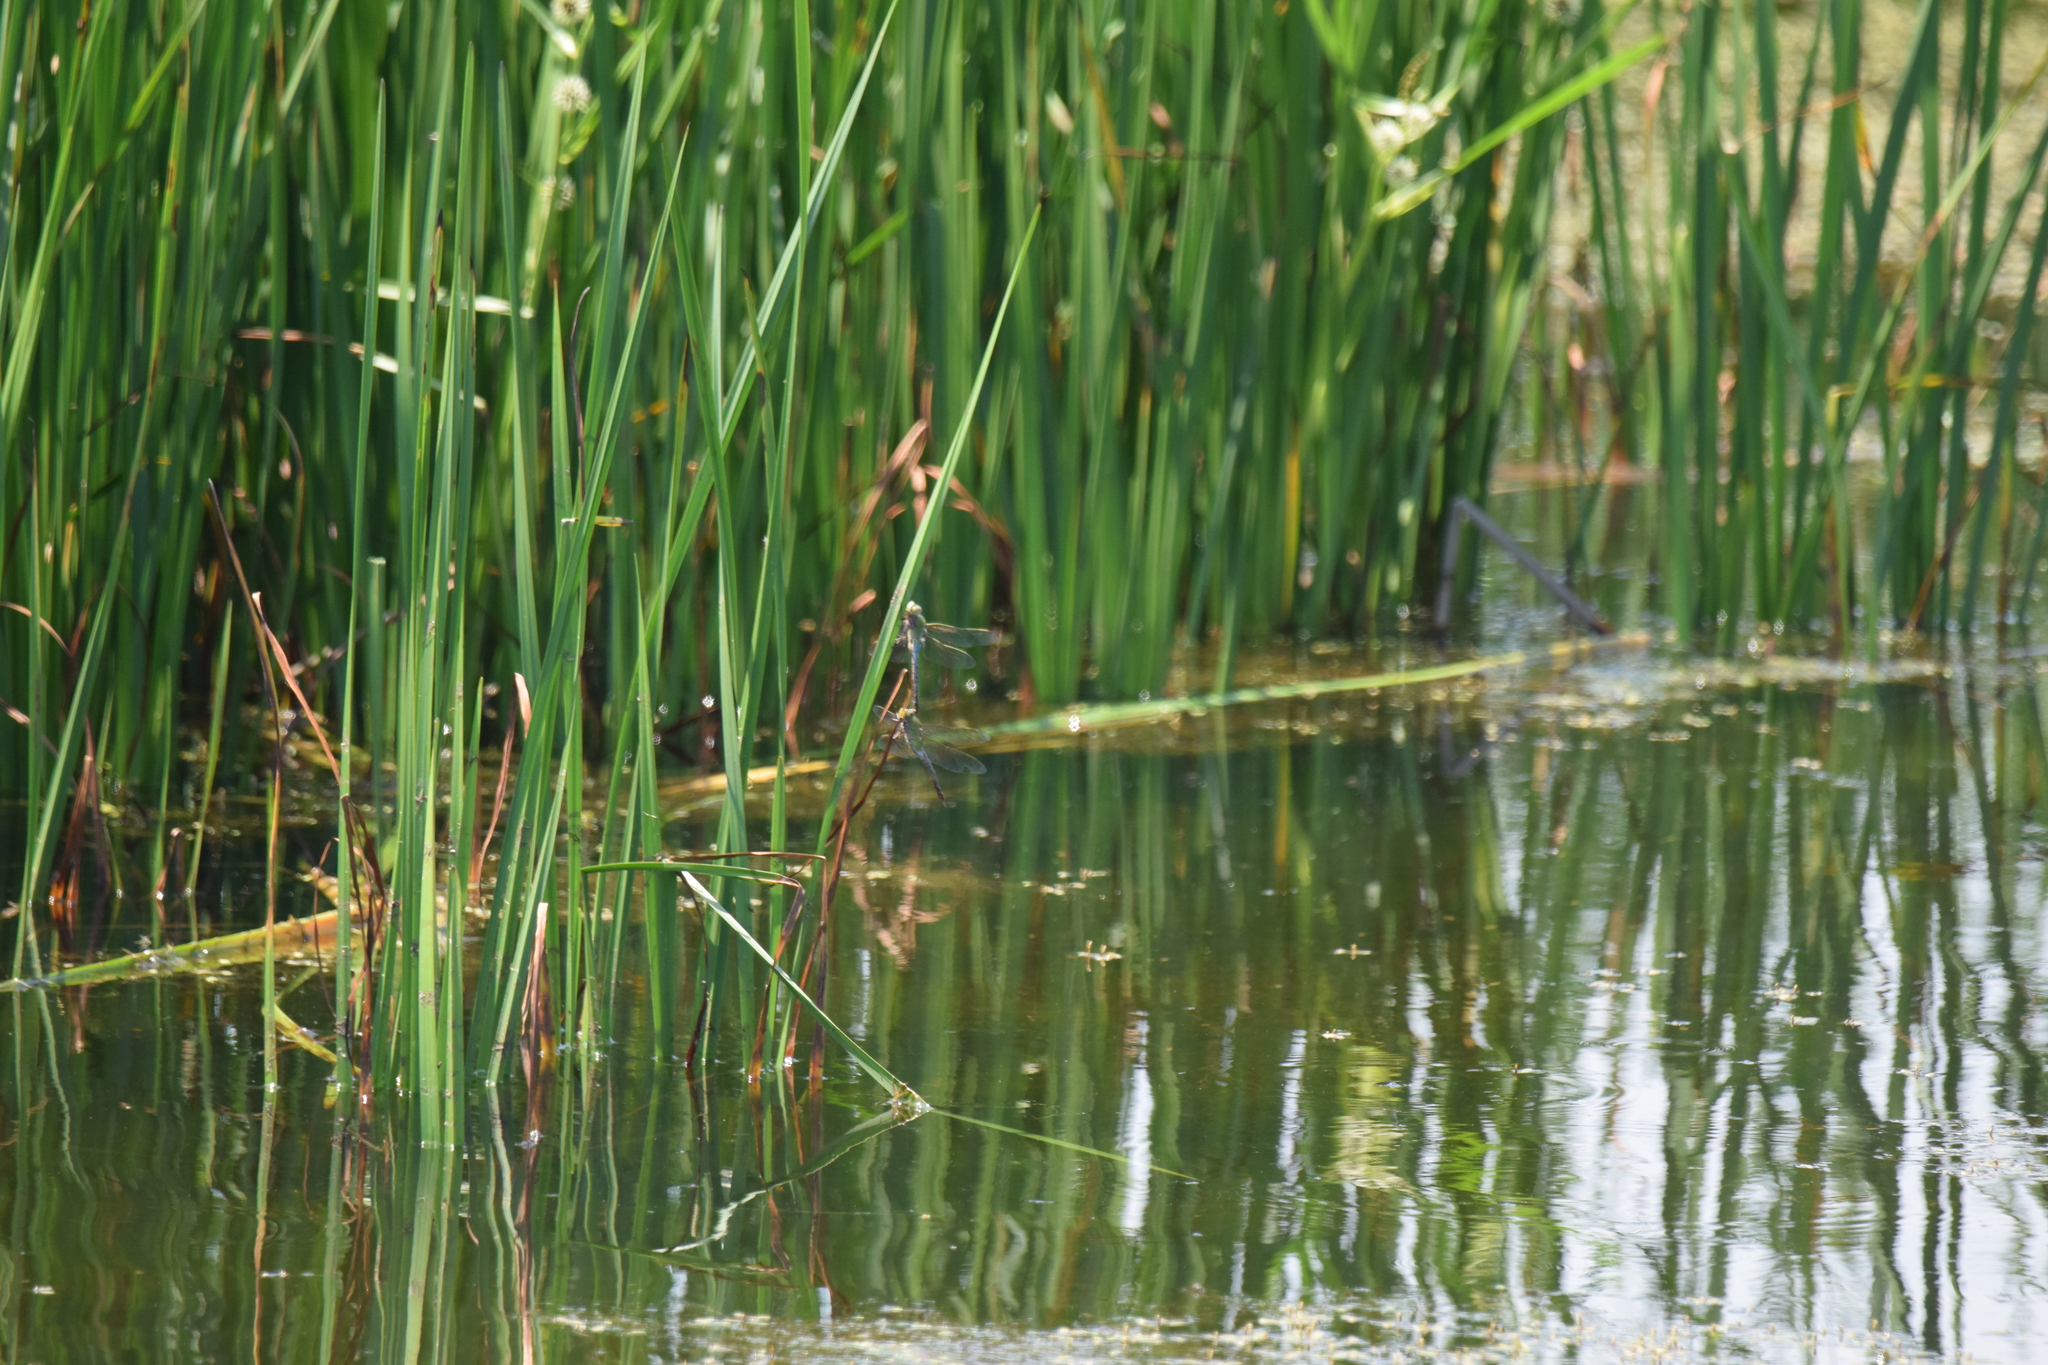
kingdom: Animalia
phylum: Arthropoda
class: Insecta
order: Odonata
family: Aeshnidae
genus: Anax
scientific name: Anax junius
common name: Common green darner
